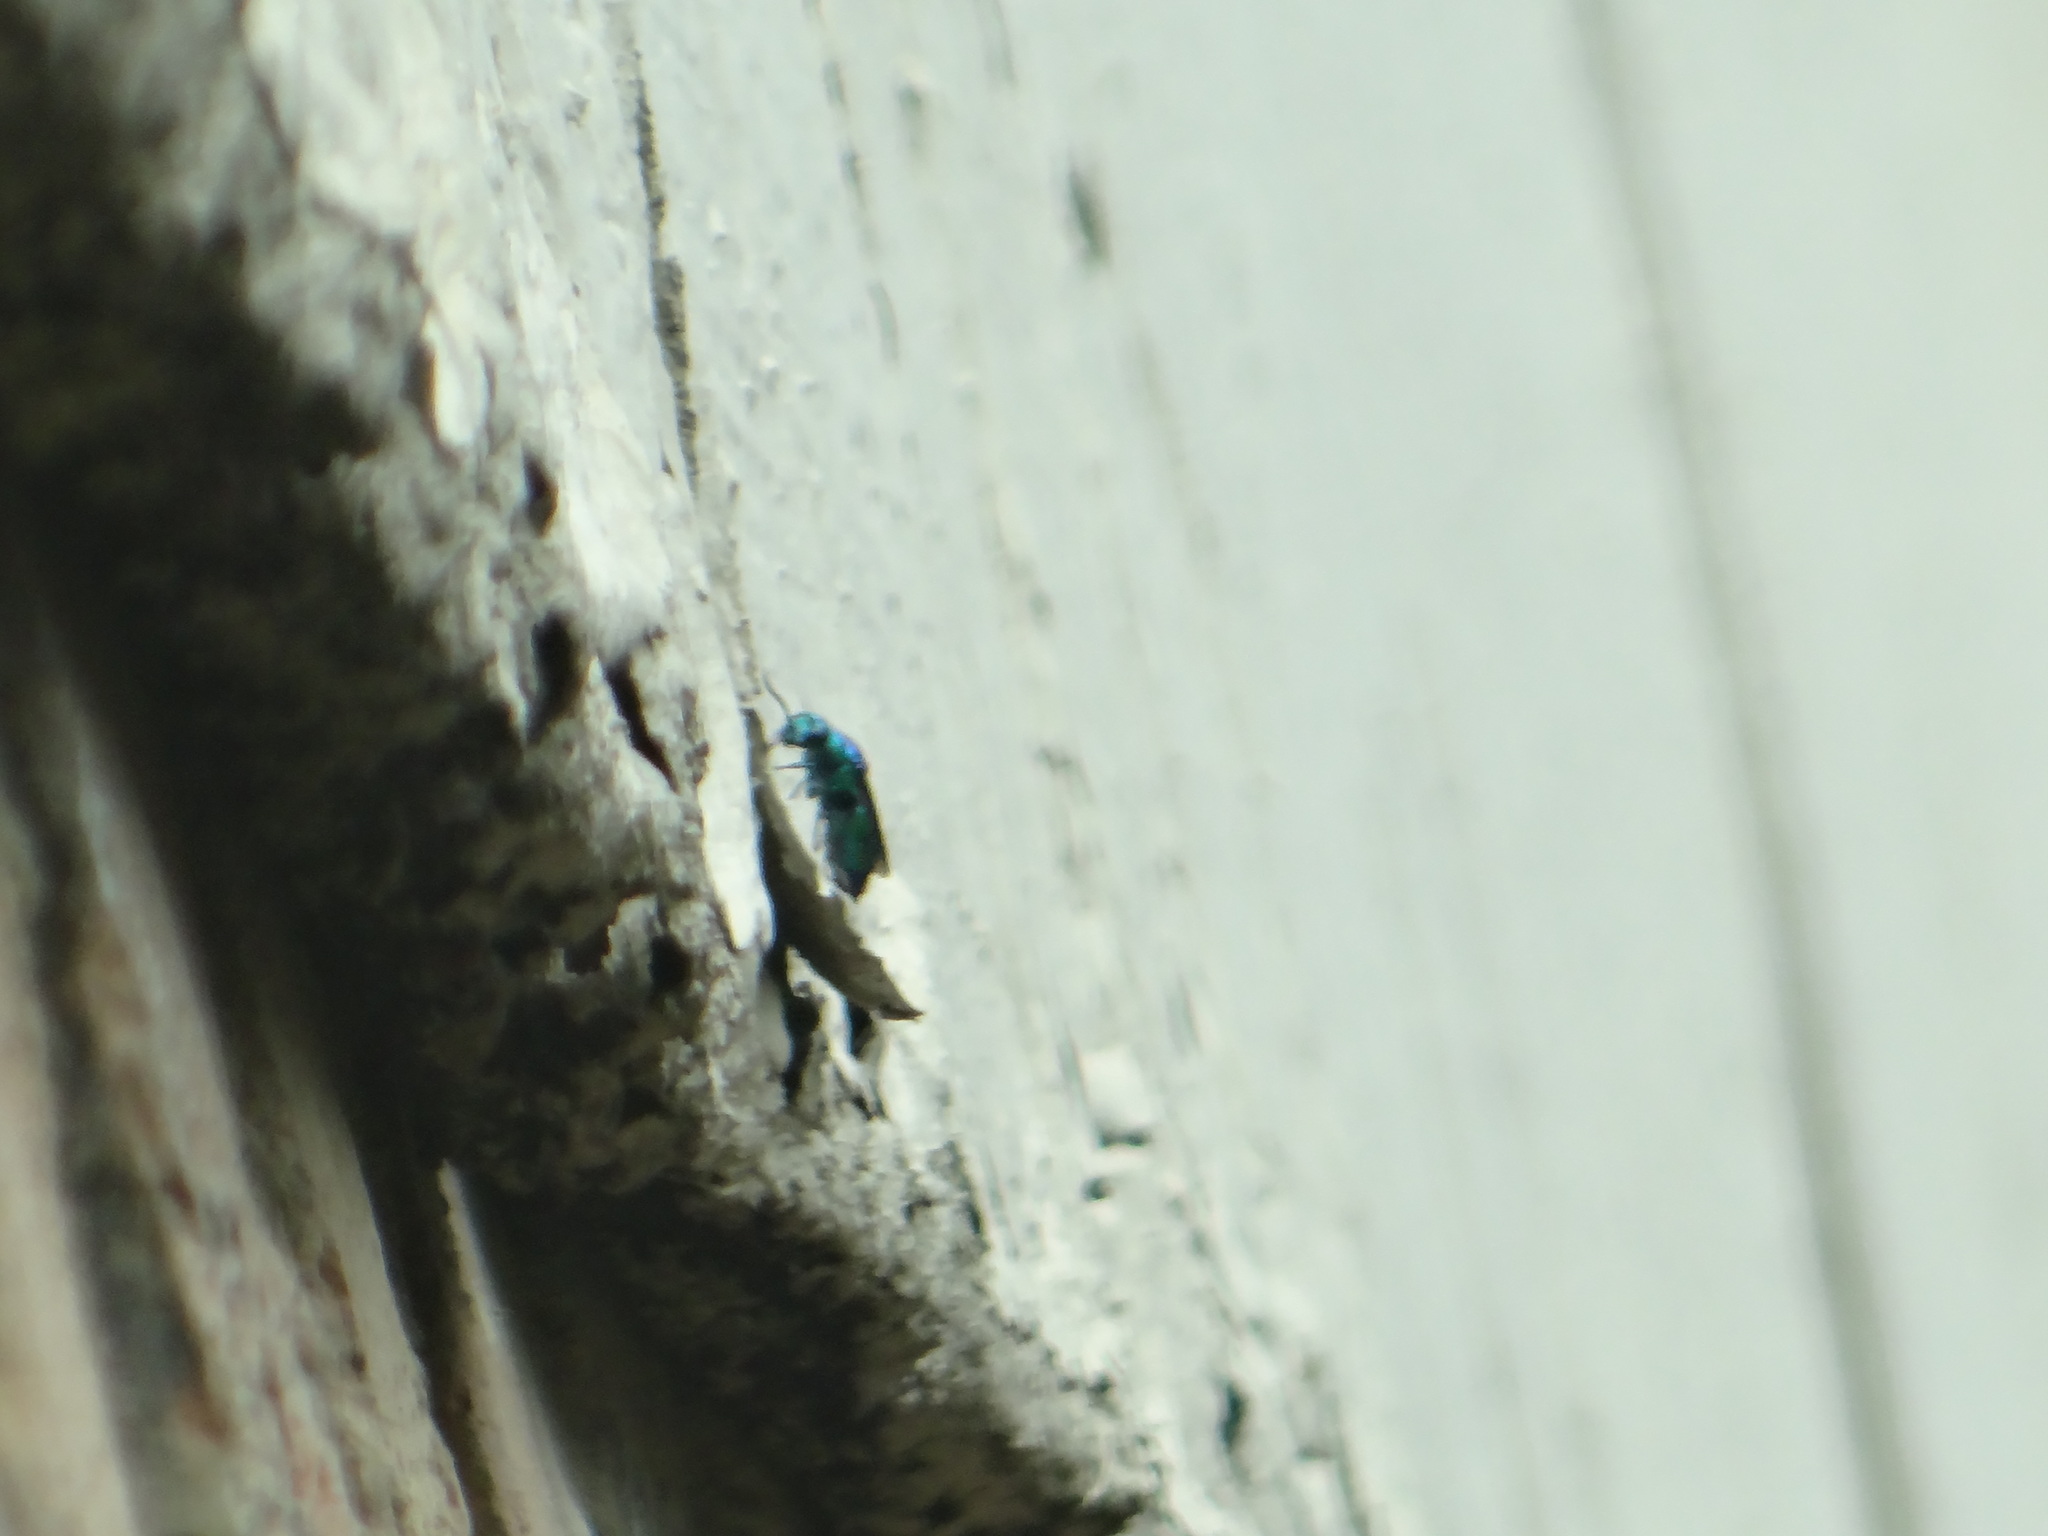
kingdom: Animalia
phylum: Arthropoda
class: Insecta
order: Hymenoptera
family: Chrysididae
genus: Chrysis
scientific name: Chrysis angolensis
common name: Cuckoo wasp
